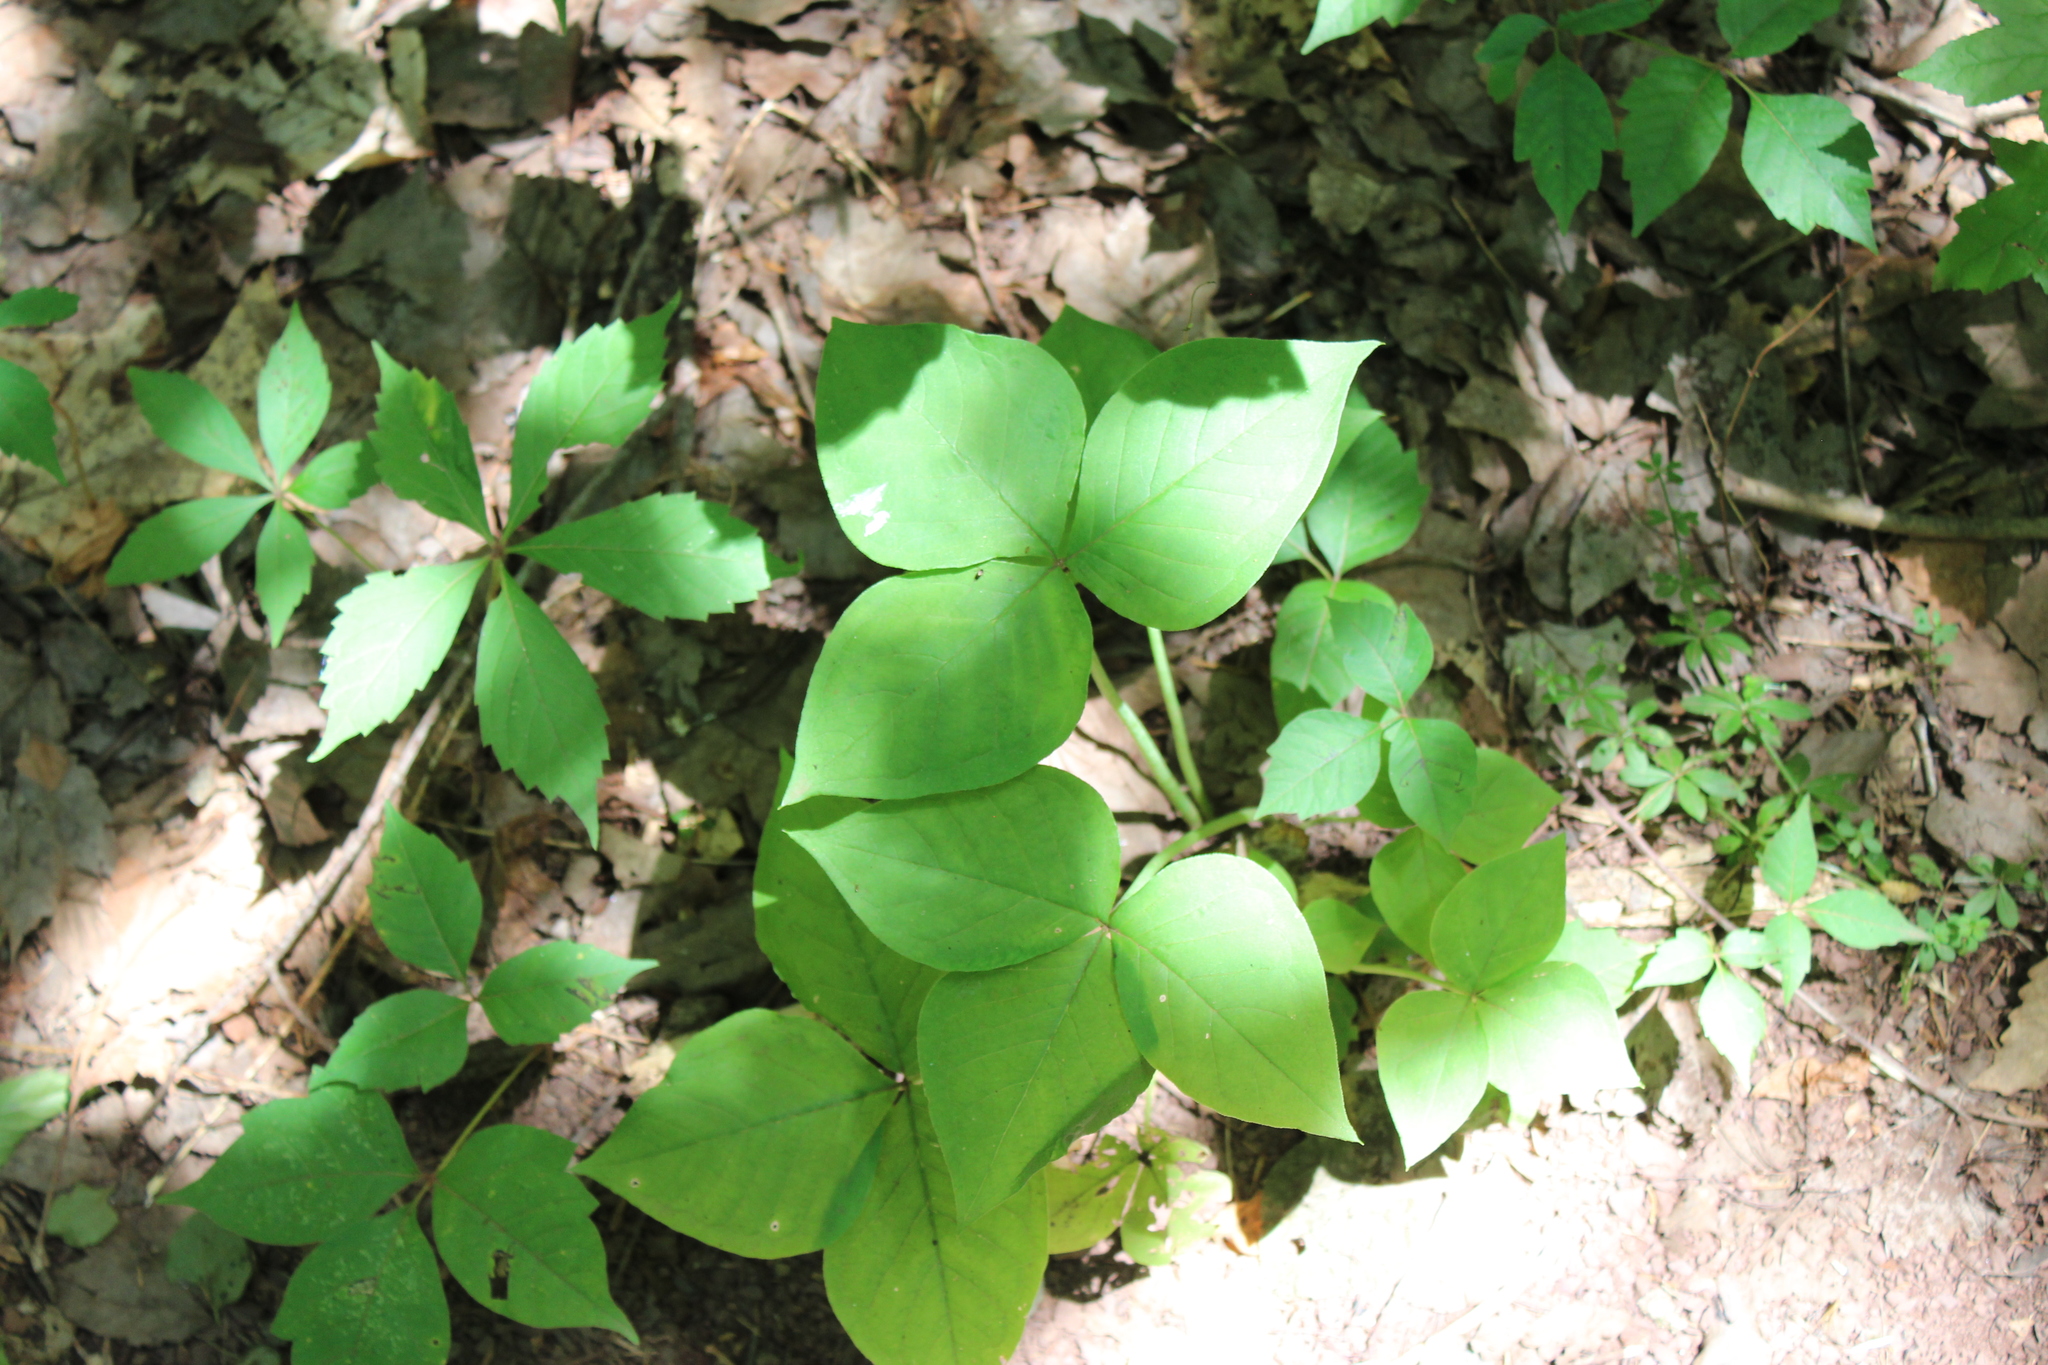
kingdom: Plantae
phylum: Tracheophyta
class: Liliopsida
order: Alismatales
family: Araceae
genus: Arisaema
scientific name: Arisaema triphyllum
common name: Jack-in-the-pulpit
